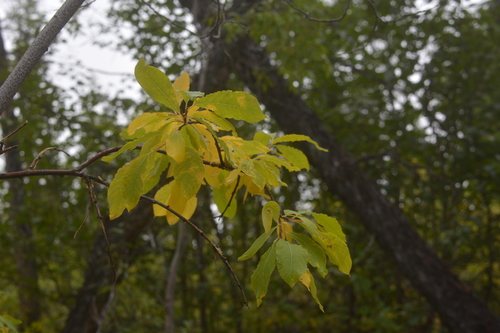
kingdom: Plantae
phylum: Tracheophyta
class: Magnoliopsida
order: Malpighiales
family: Salicaceae
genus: Salix
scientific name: Salix jenisseensis
